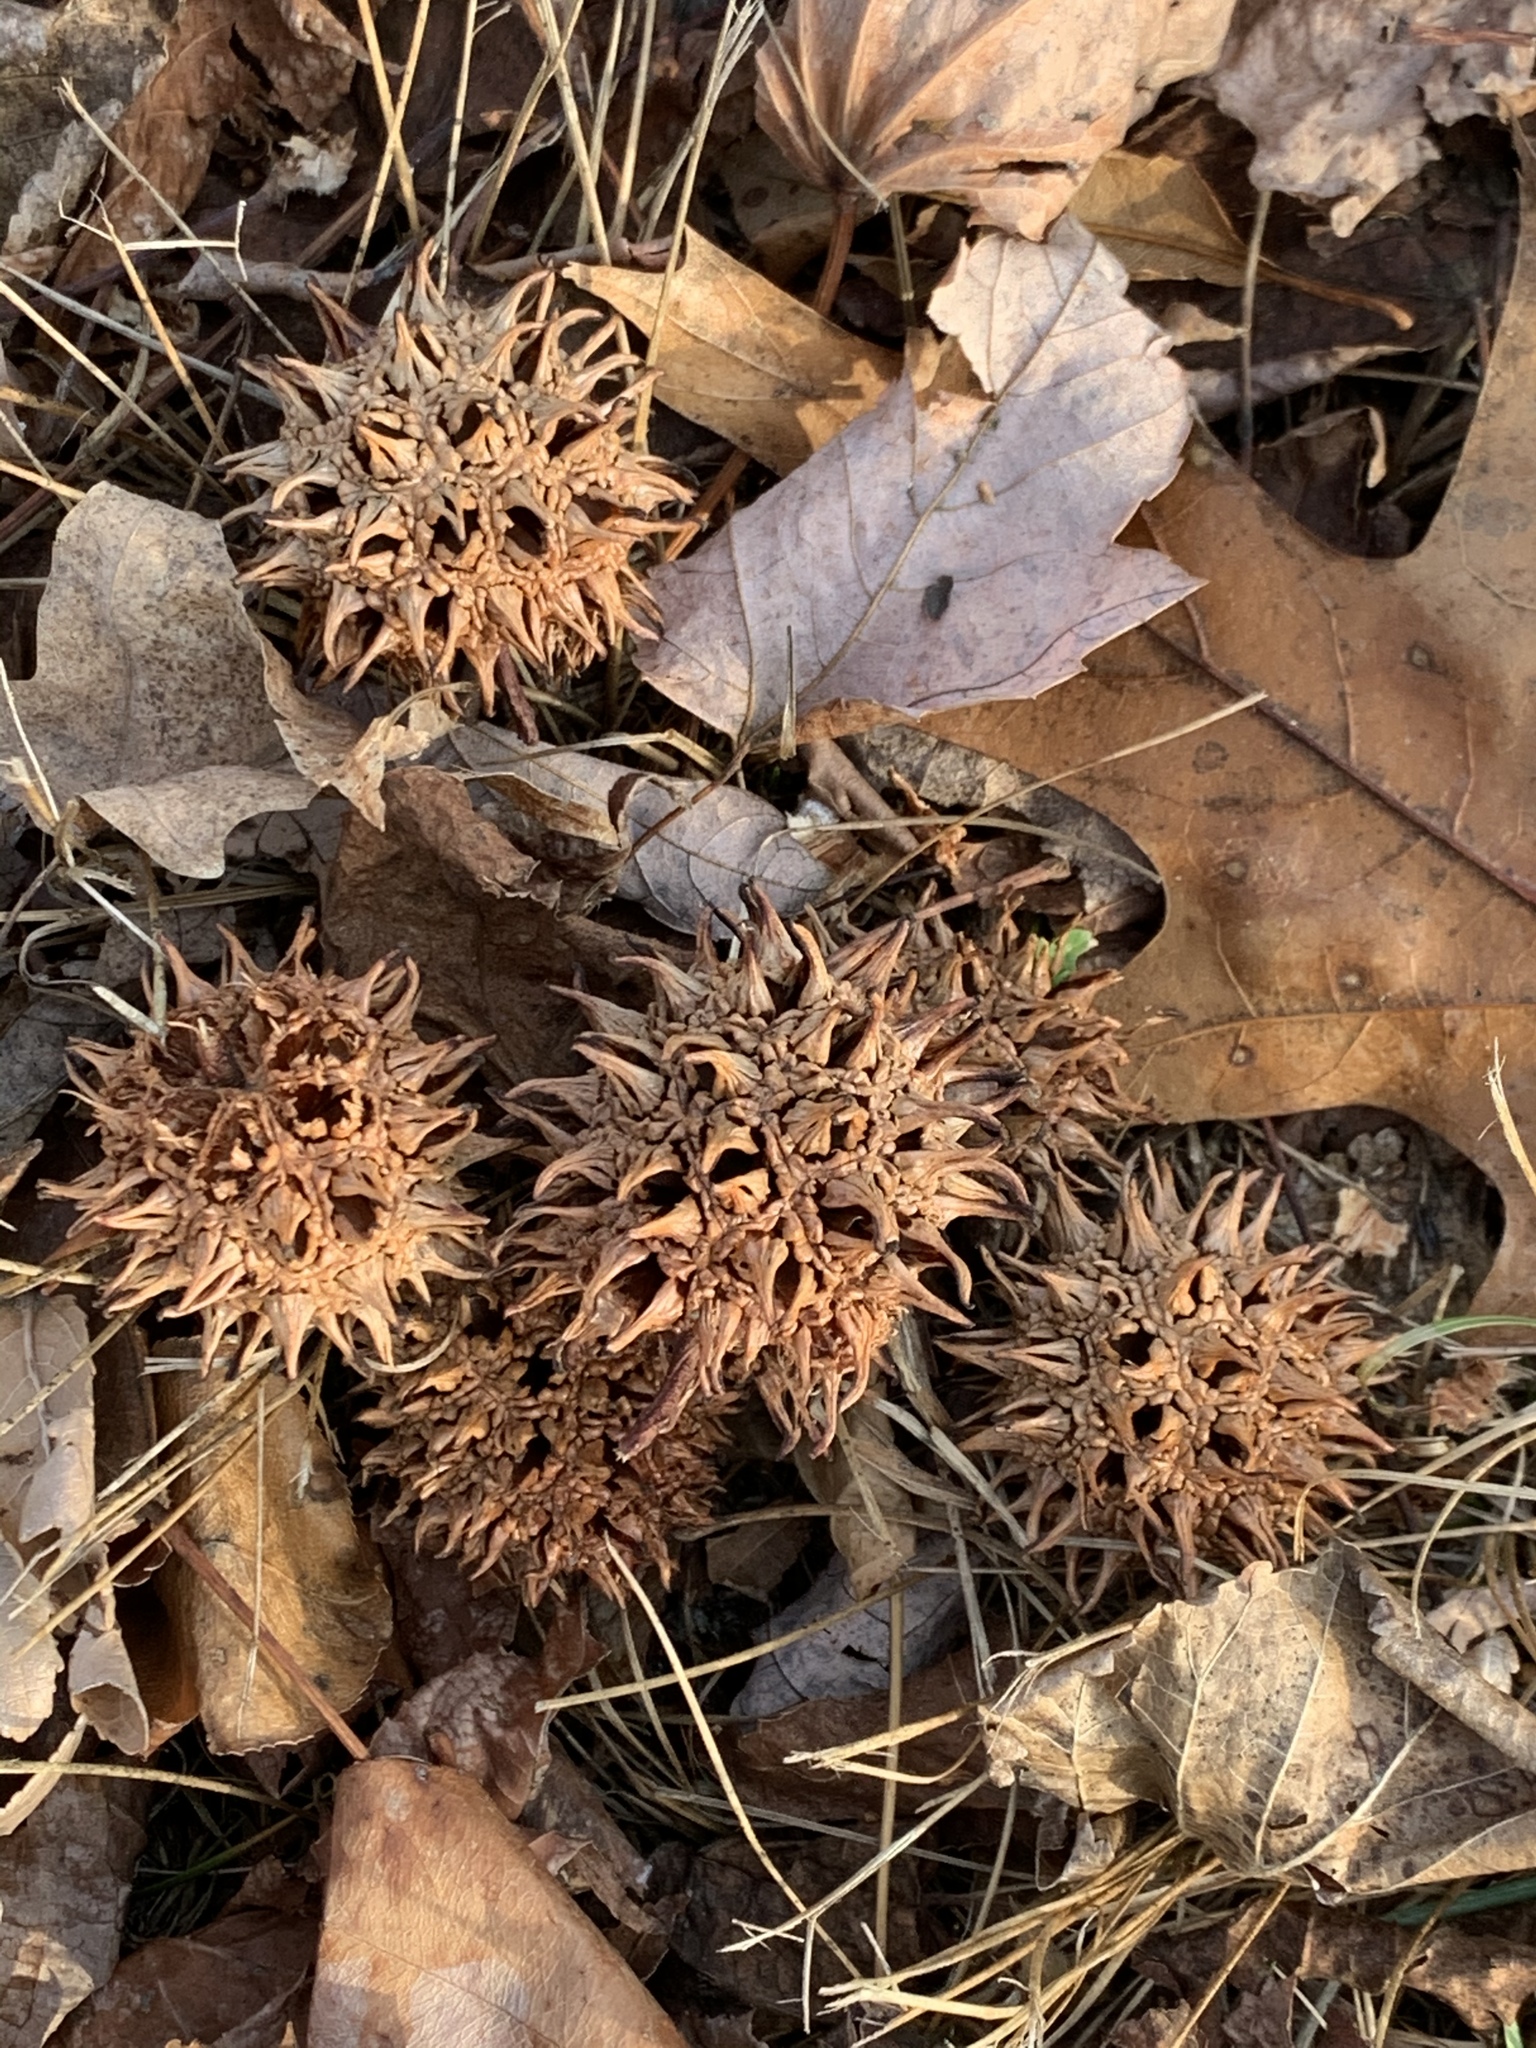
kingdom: Plantae
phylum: Tracheophyta
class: Magnoliopsida
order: Saxifragales
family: Altingiaceae
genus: Liquidambar
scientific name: Liquidambar styraciflua
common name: Sweet gum
